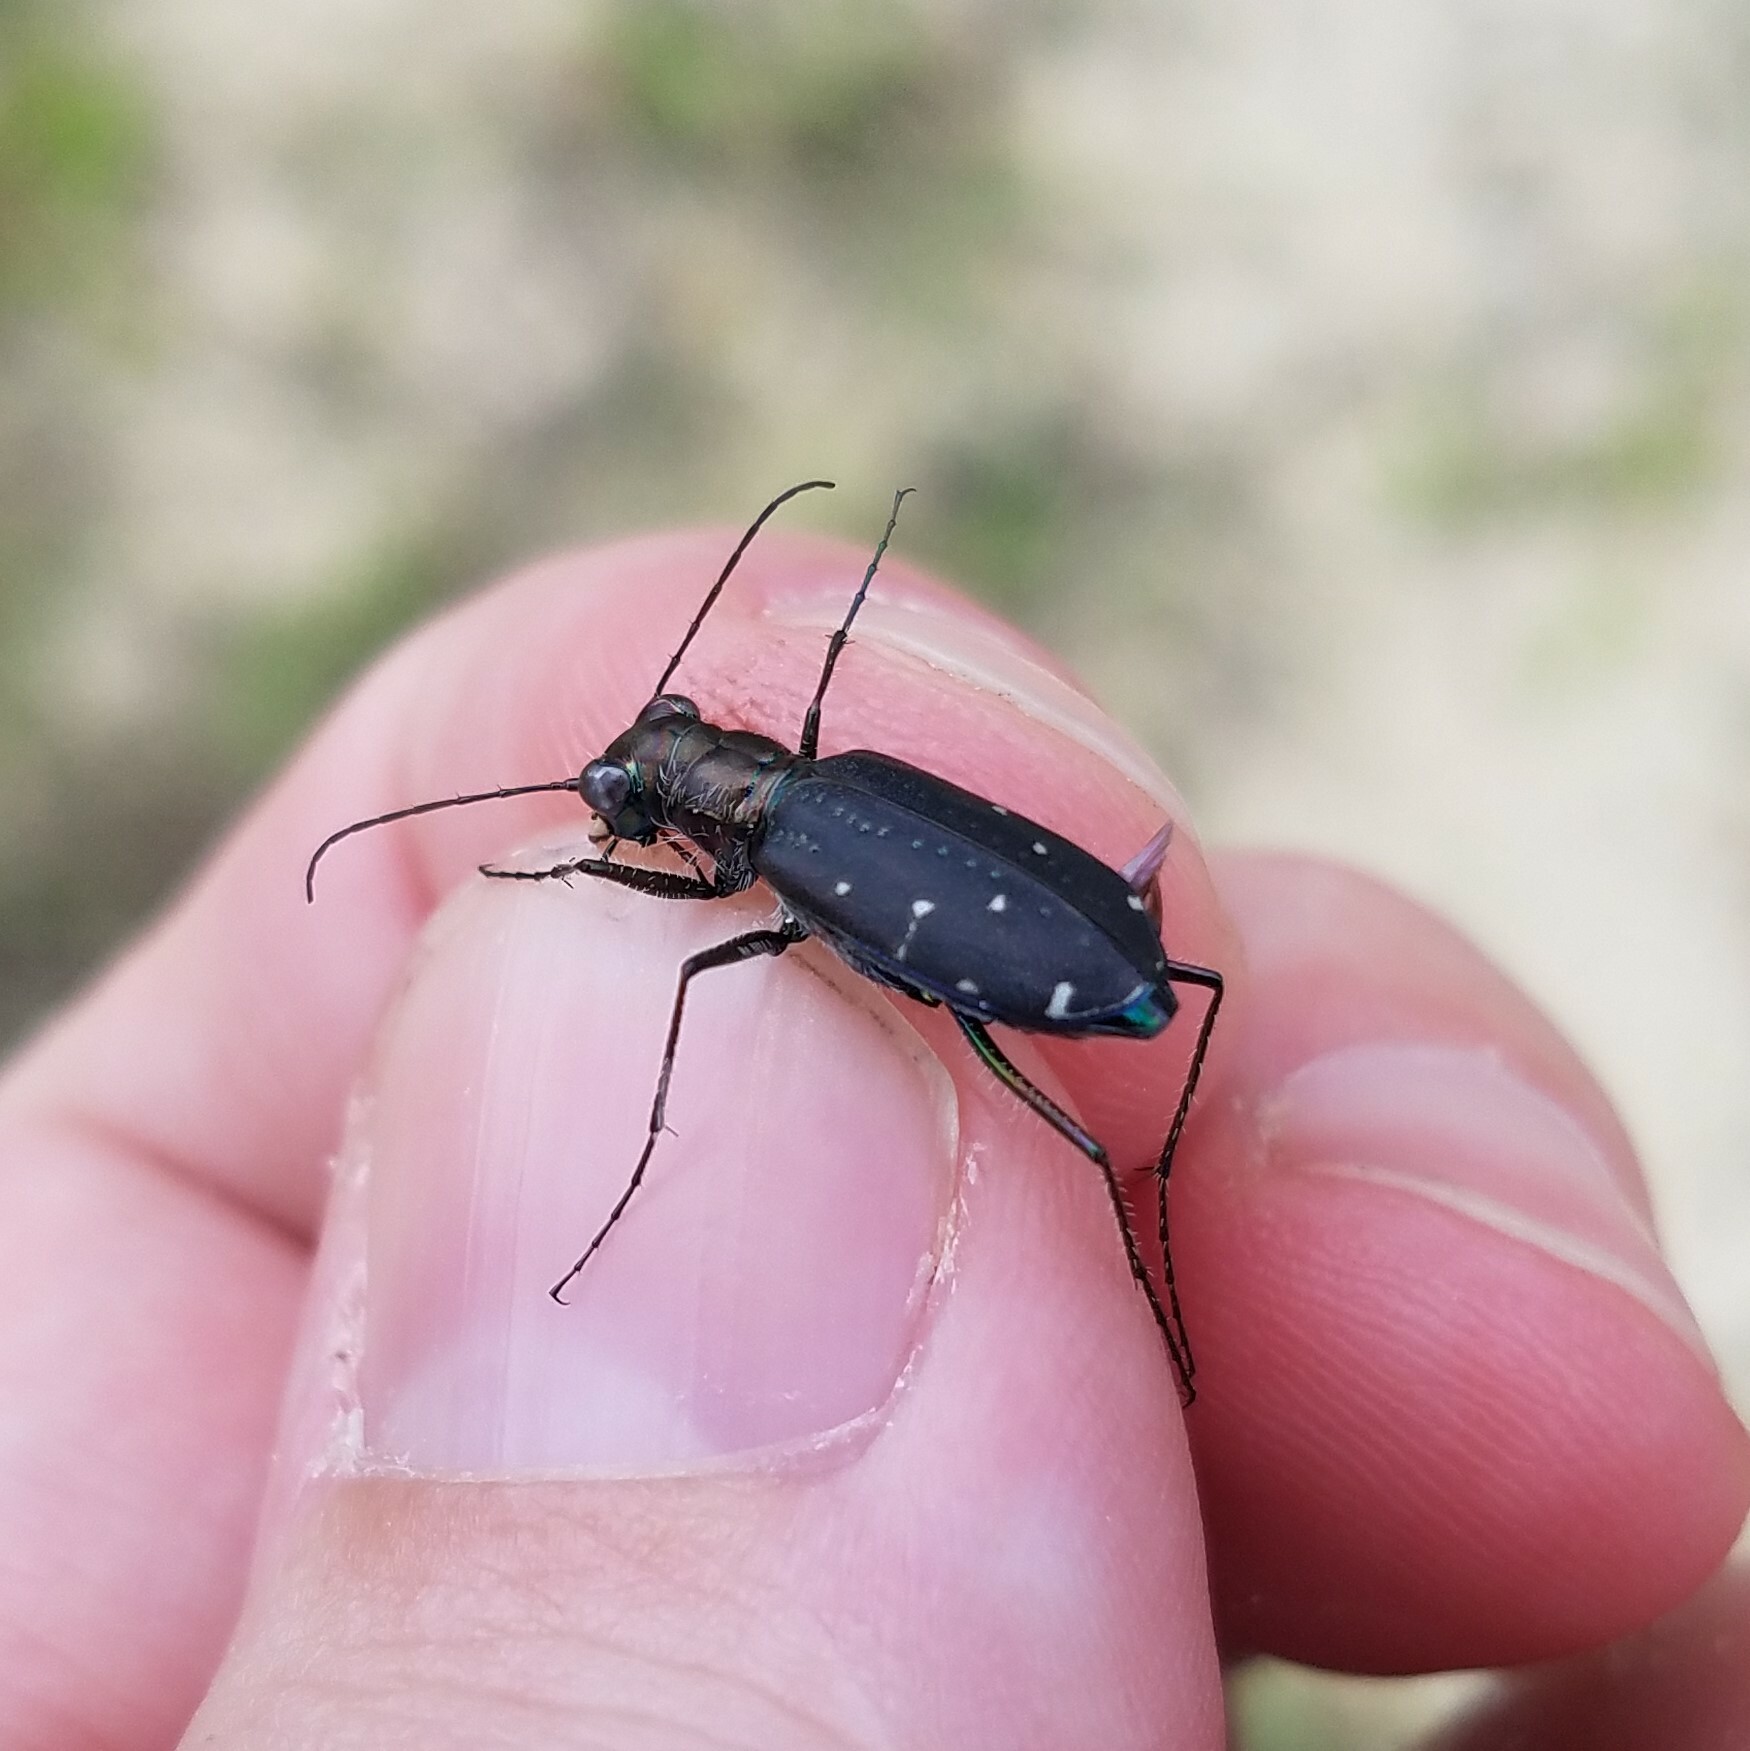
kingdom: Animalia
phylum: Arthropoda
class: Insecta
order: Coleoptera
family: Carabidae
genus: Cicindela
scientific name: Cicindela punctulata
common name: Punctured tiger beetle
